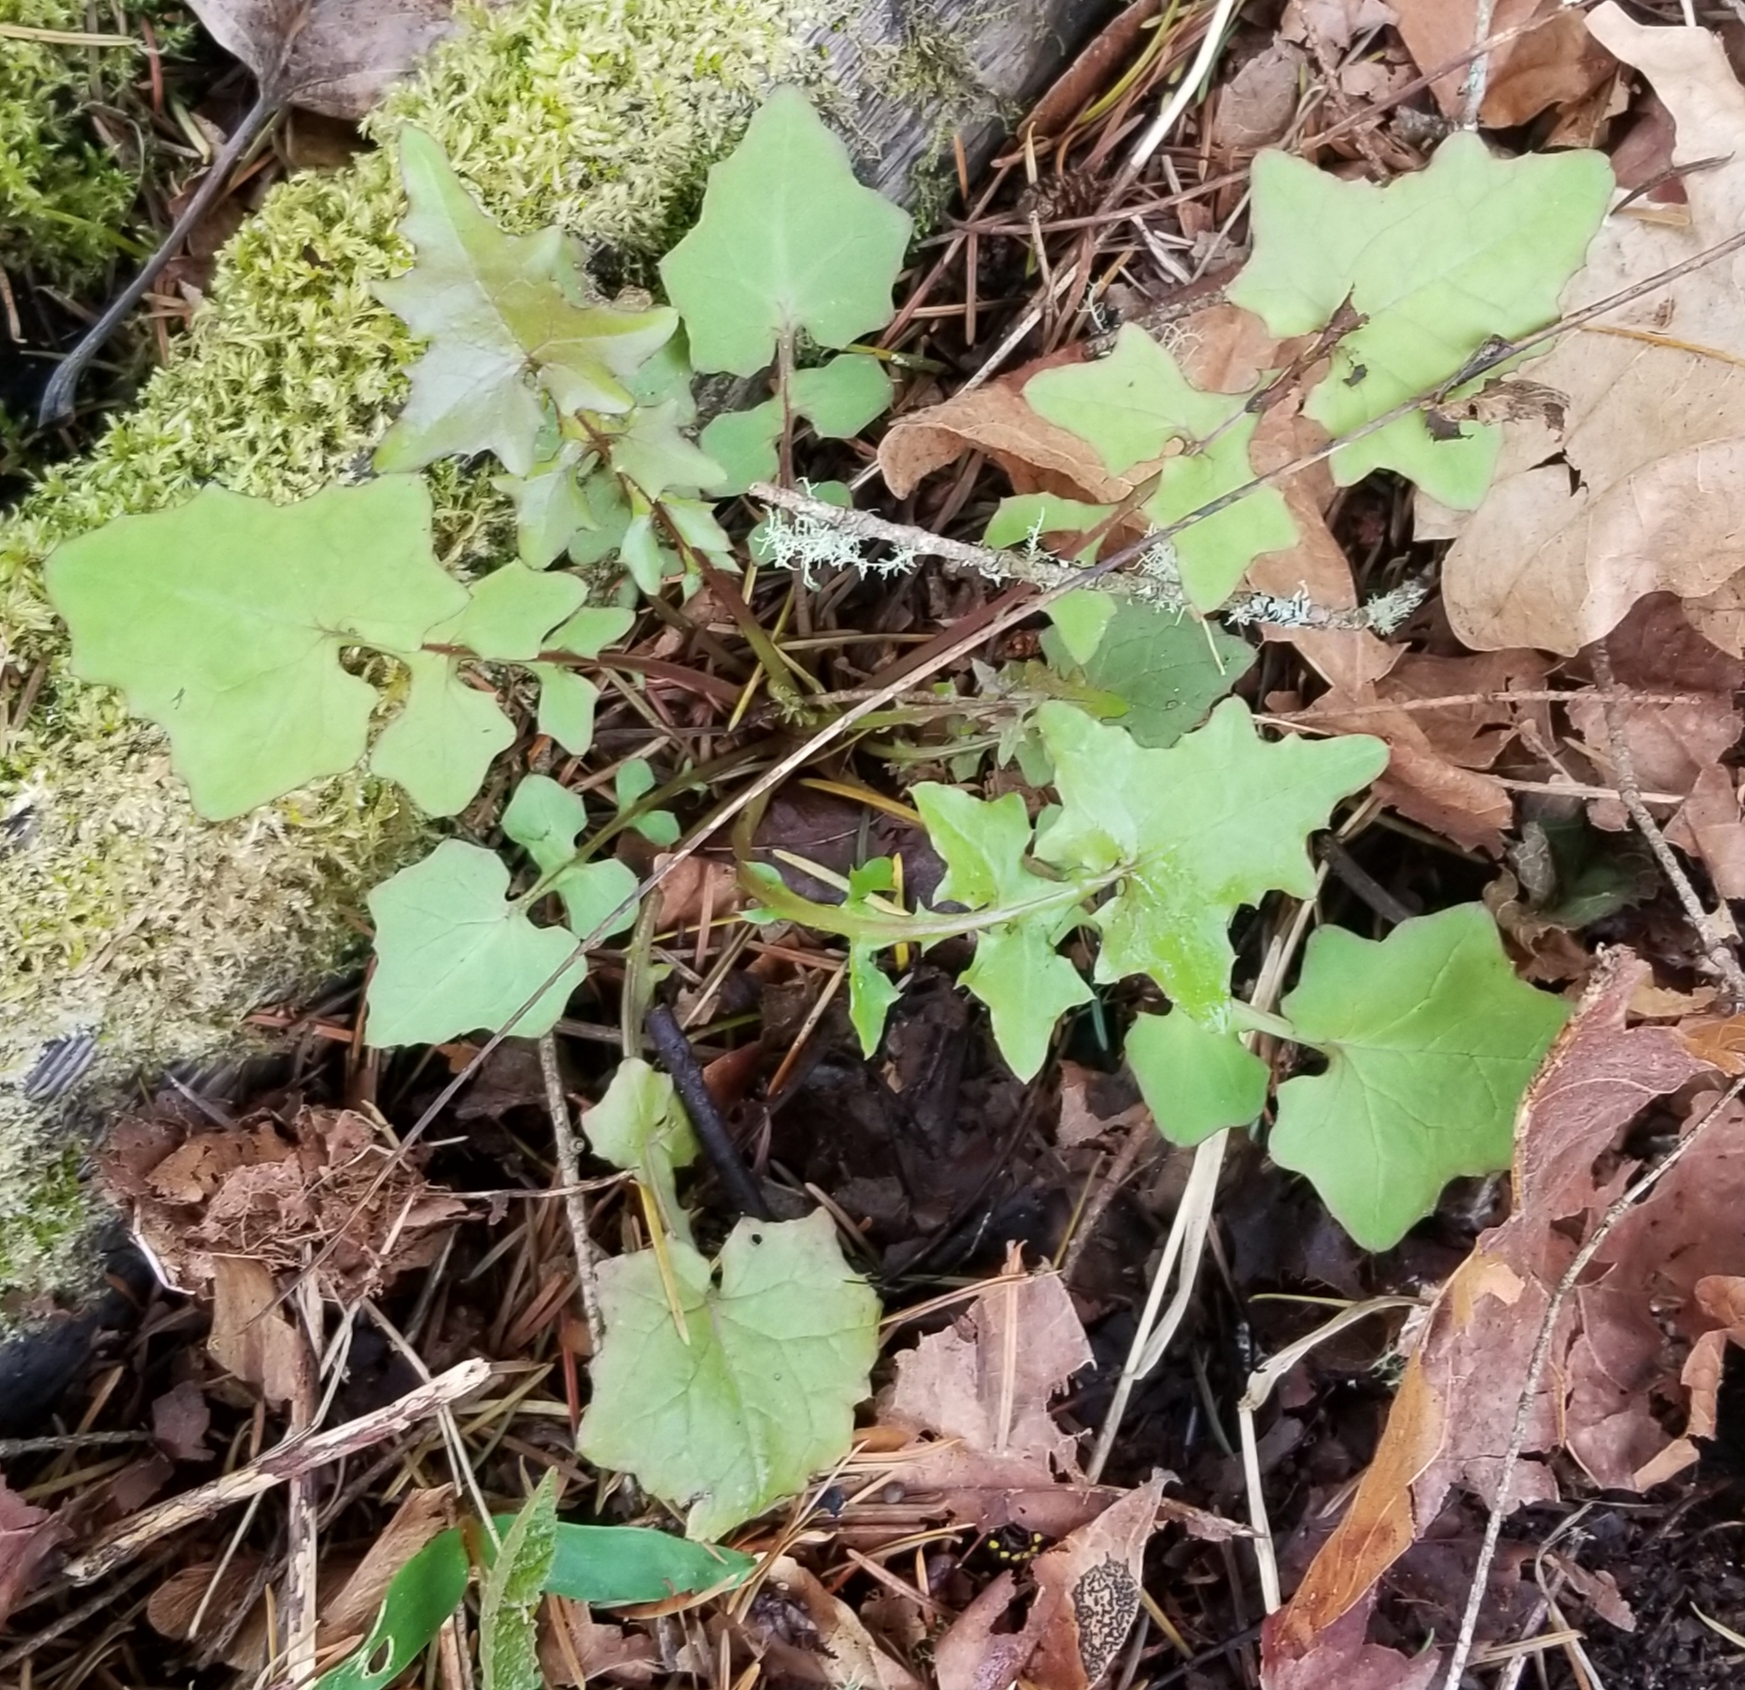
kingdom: Plantae
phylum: Tracheophyta
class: Magnoliopsida
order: Asterales
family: Asteraceae
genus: Mycelis
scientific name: Mycelis muralis
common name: Wall lettuce
